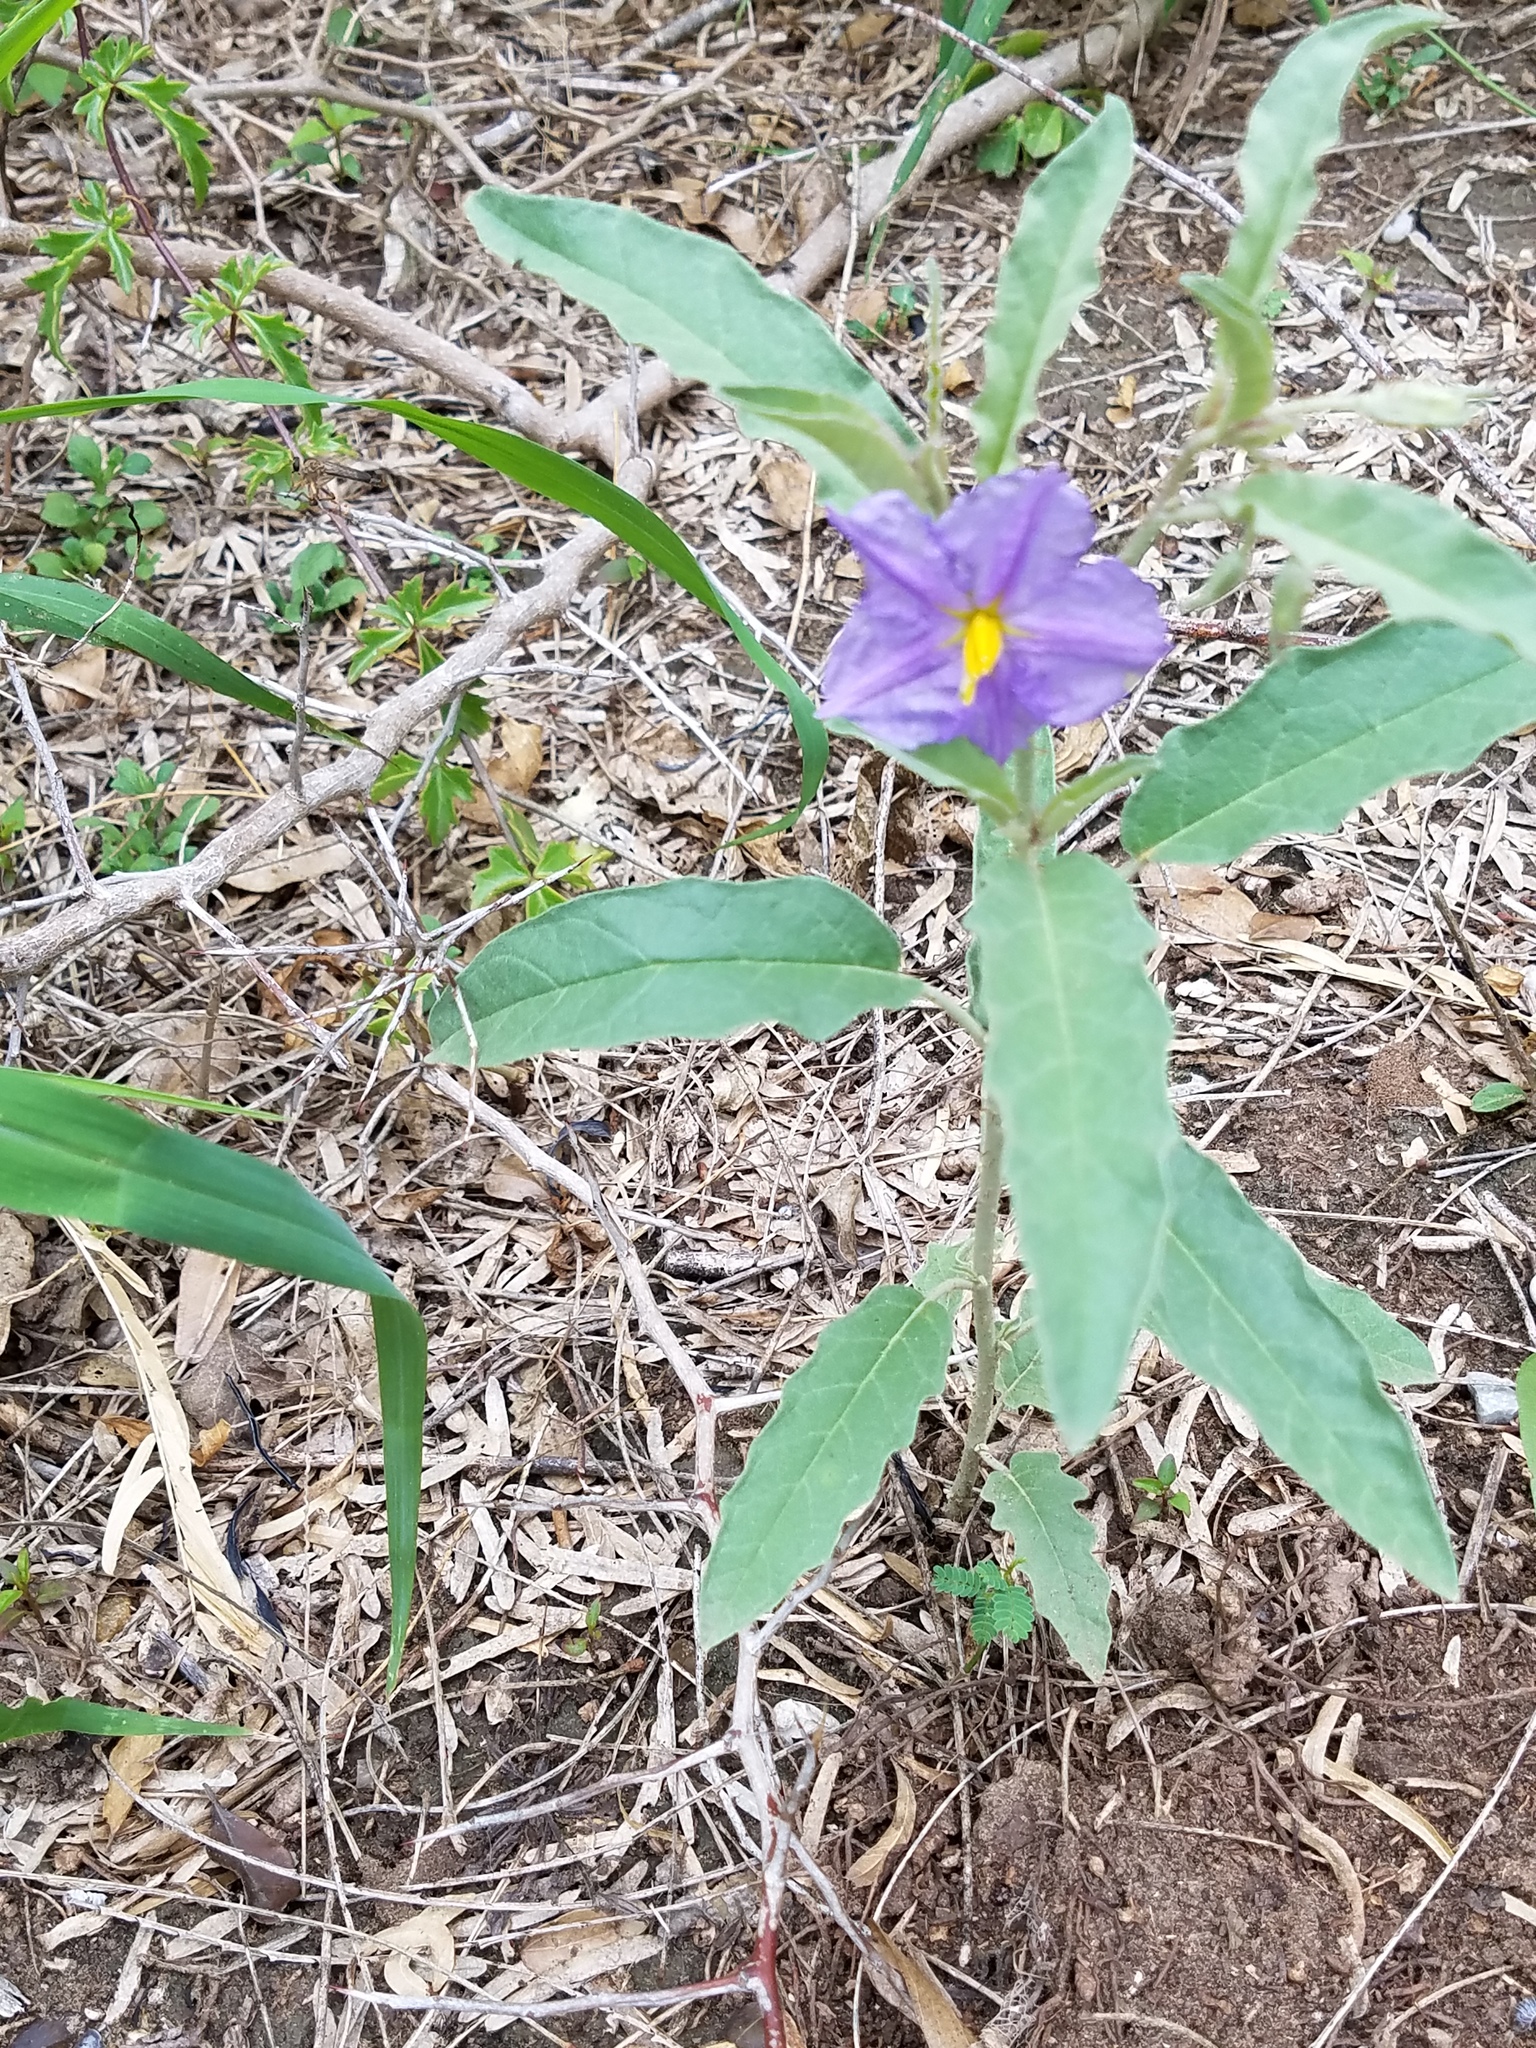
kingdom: Plantae
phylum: Tracheophyta
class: Magnoliopsida
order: Solanales
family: Solanaceae
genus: Solanum
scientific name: Solanum elaeagnifolium
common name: Silverleaf nightshade
